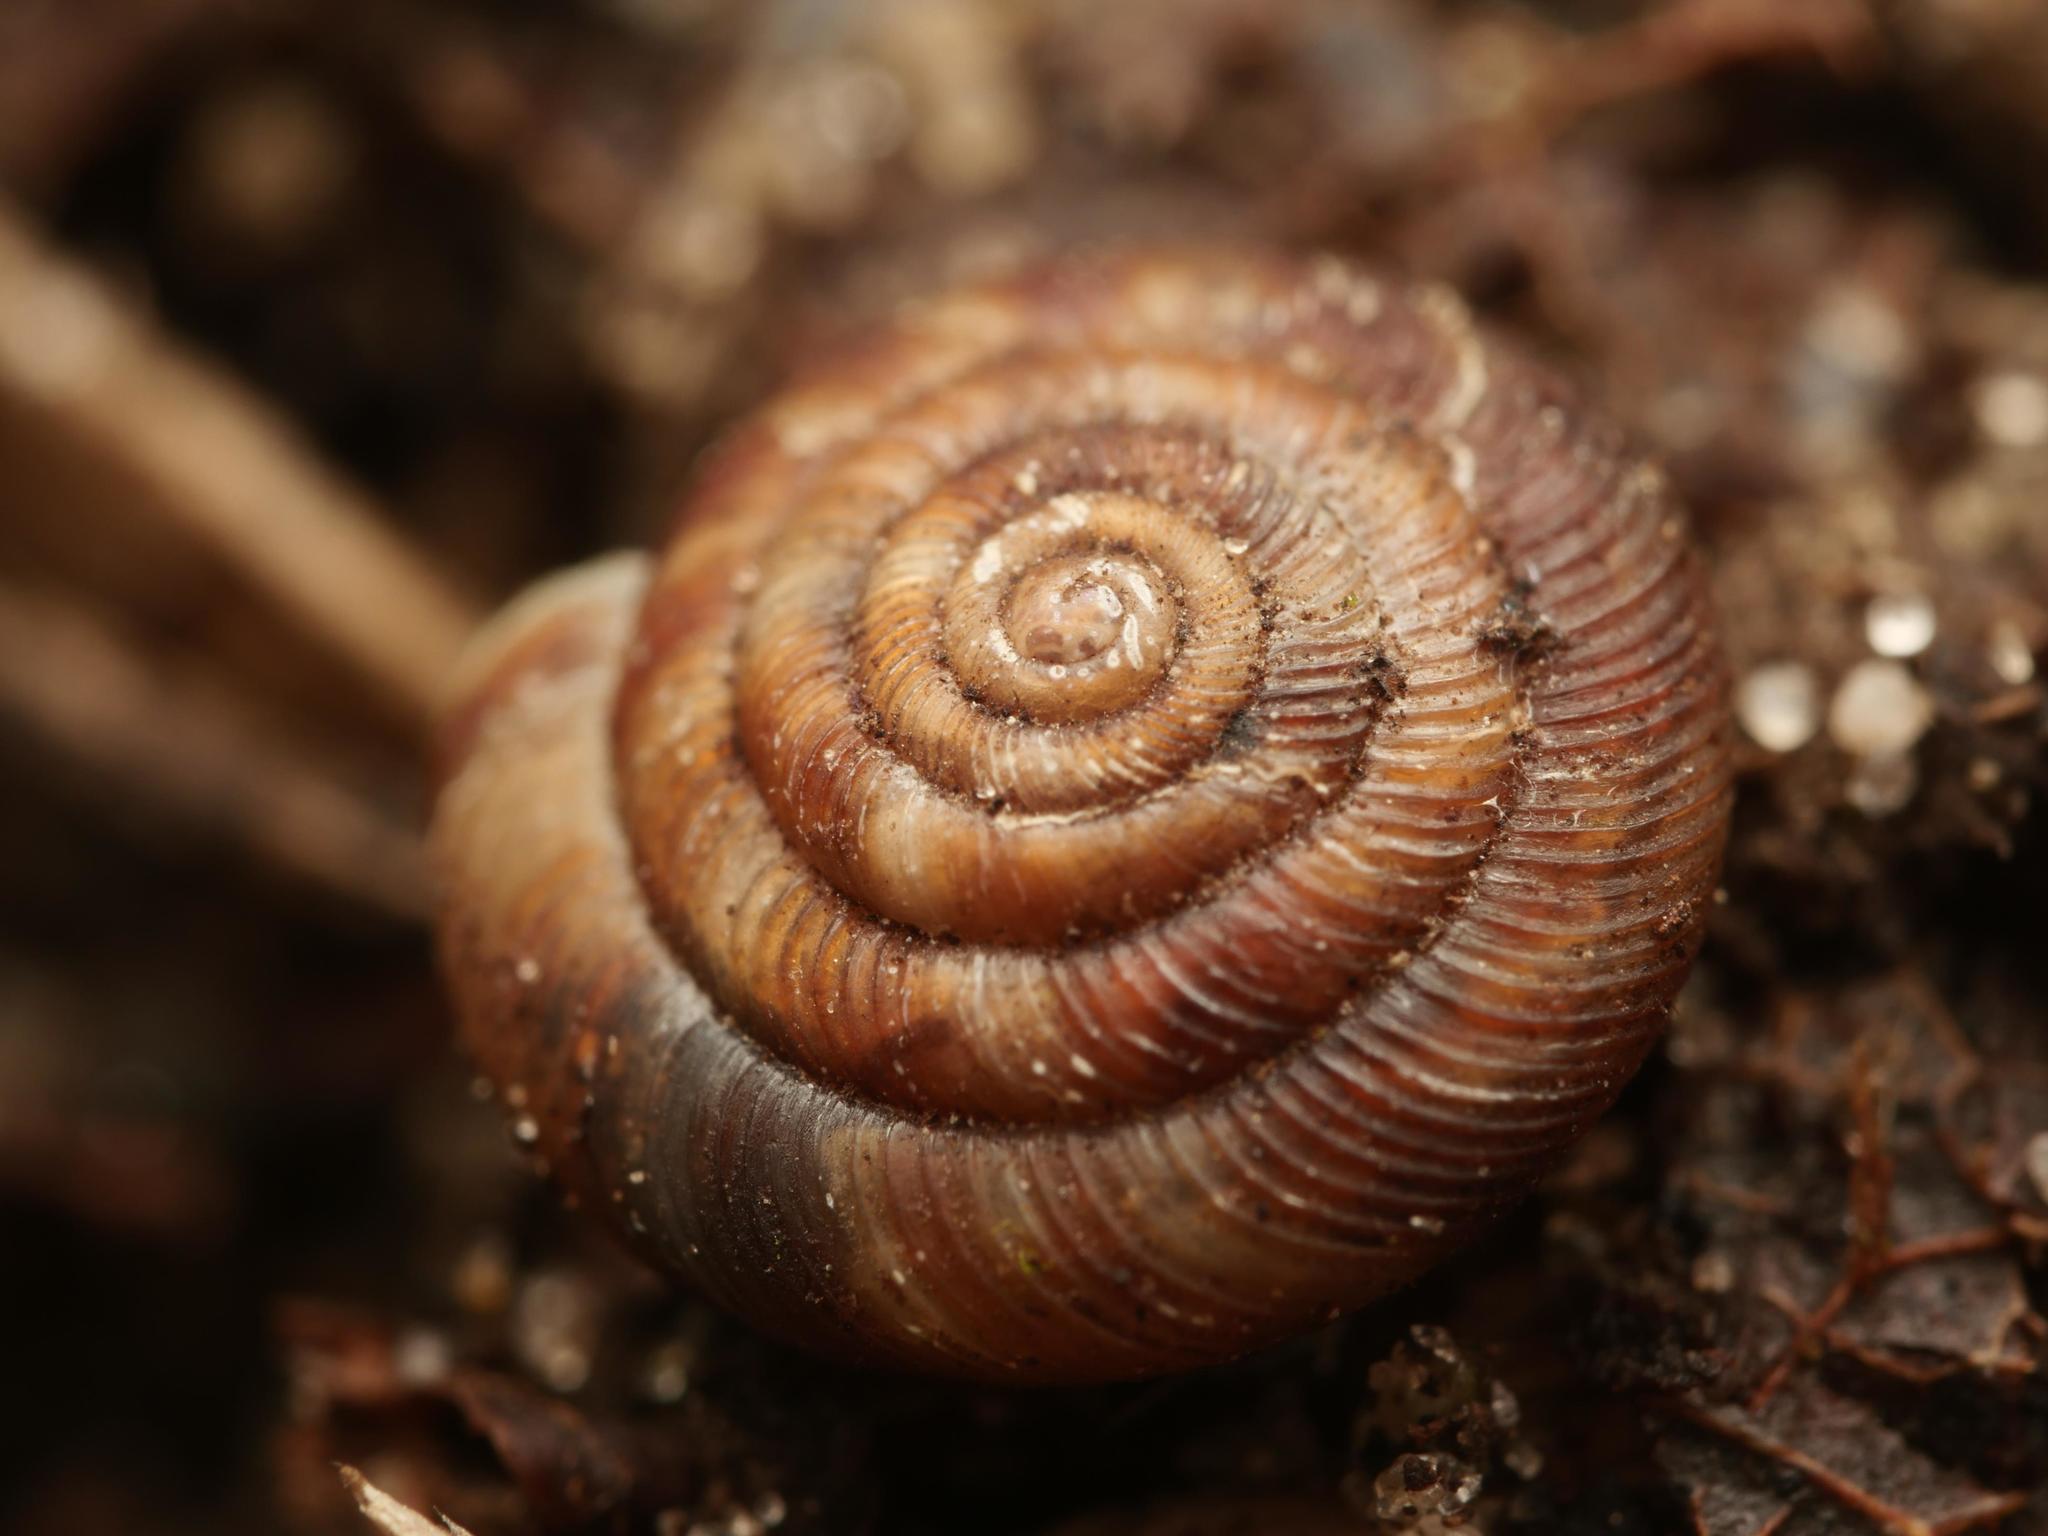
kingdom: Animalia
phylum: Mollusca
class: Gastropoda
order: Stylommatophora
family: Discidae
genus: Discus
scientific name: Discus rotundatus
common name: Rounded snail
